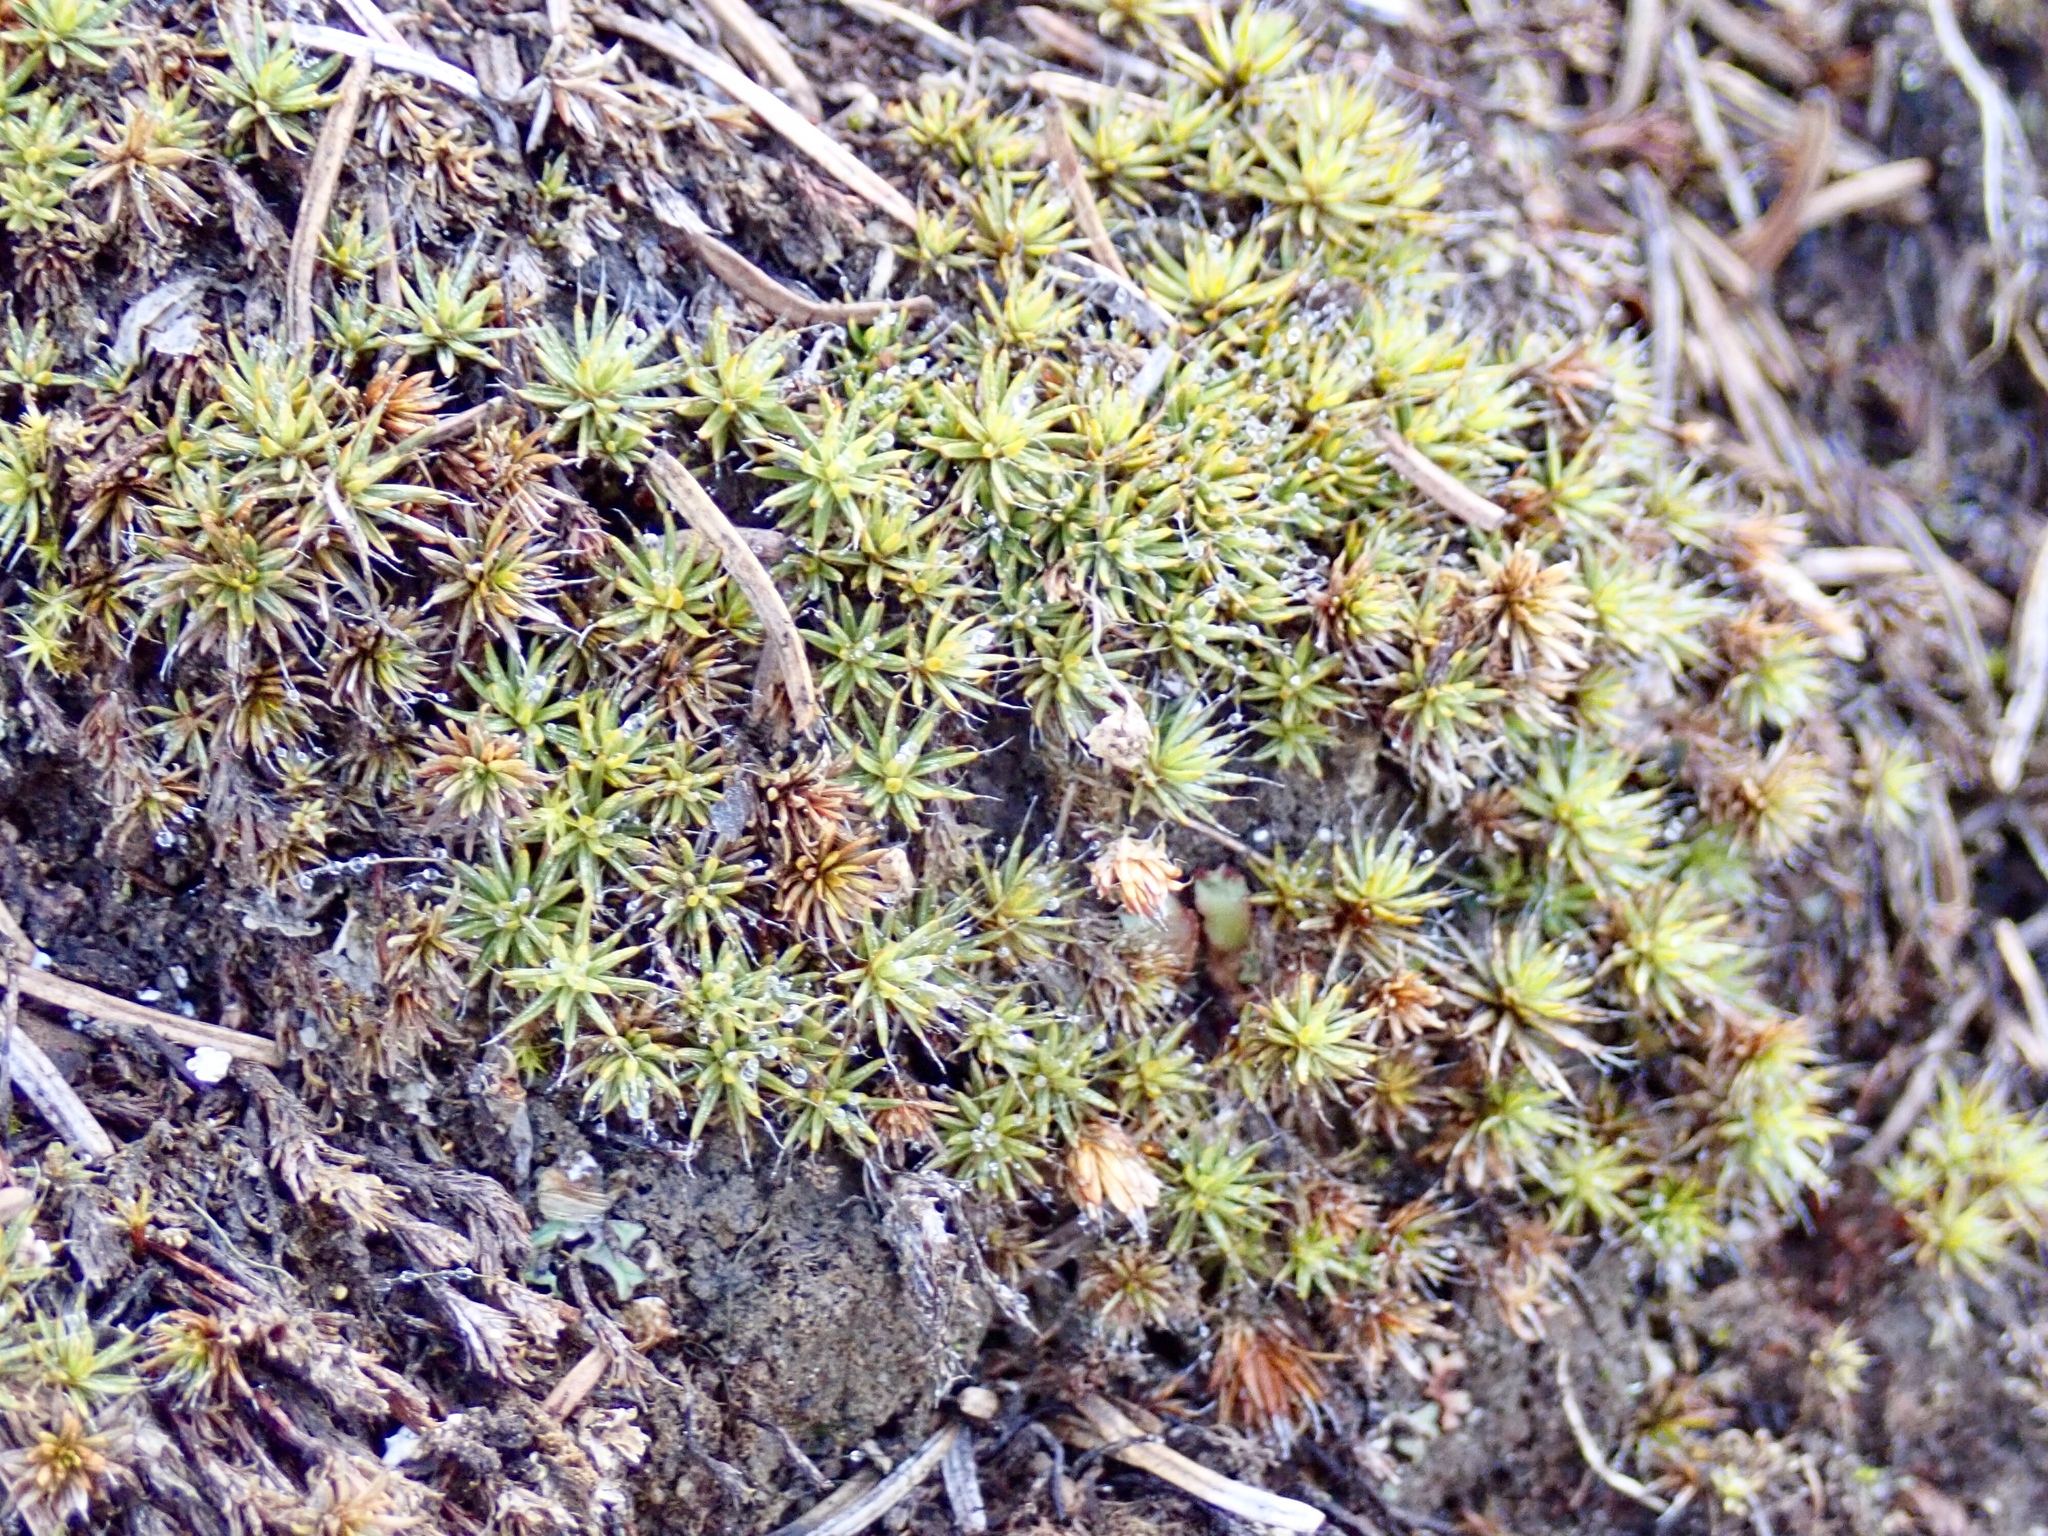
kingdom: Plantae
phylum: Bryophyta
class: Polytrichopsida
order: Polytrichales
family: Polytrichaceae
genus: Polytrichum
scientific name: Polytrichum piliferum
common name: Bristly haircap
